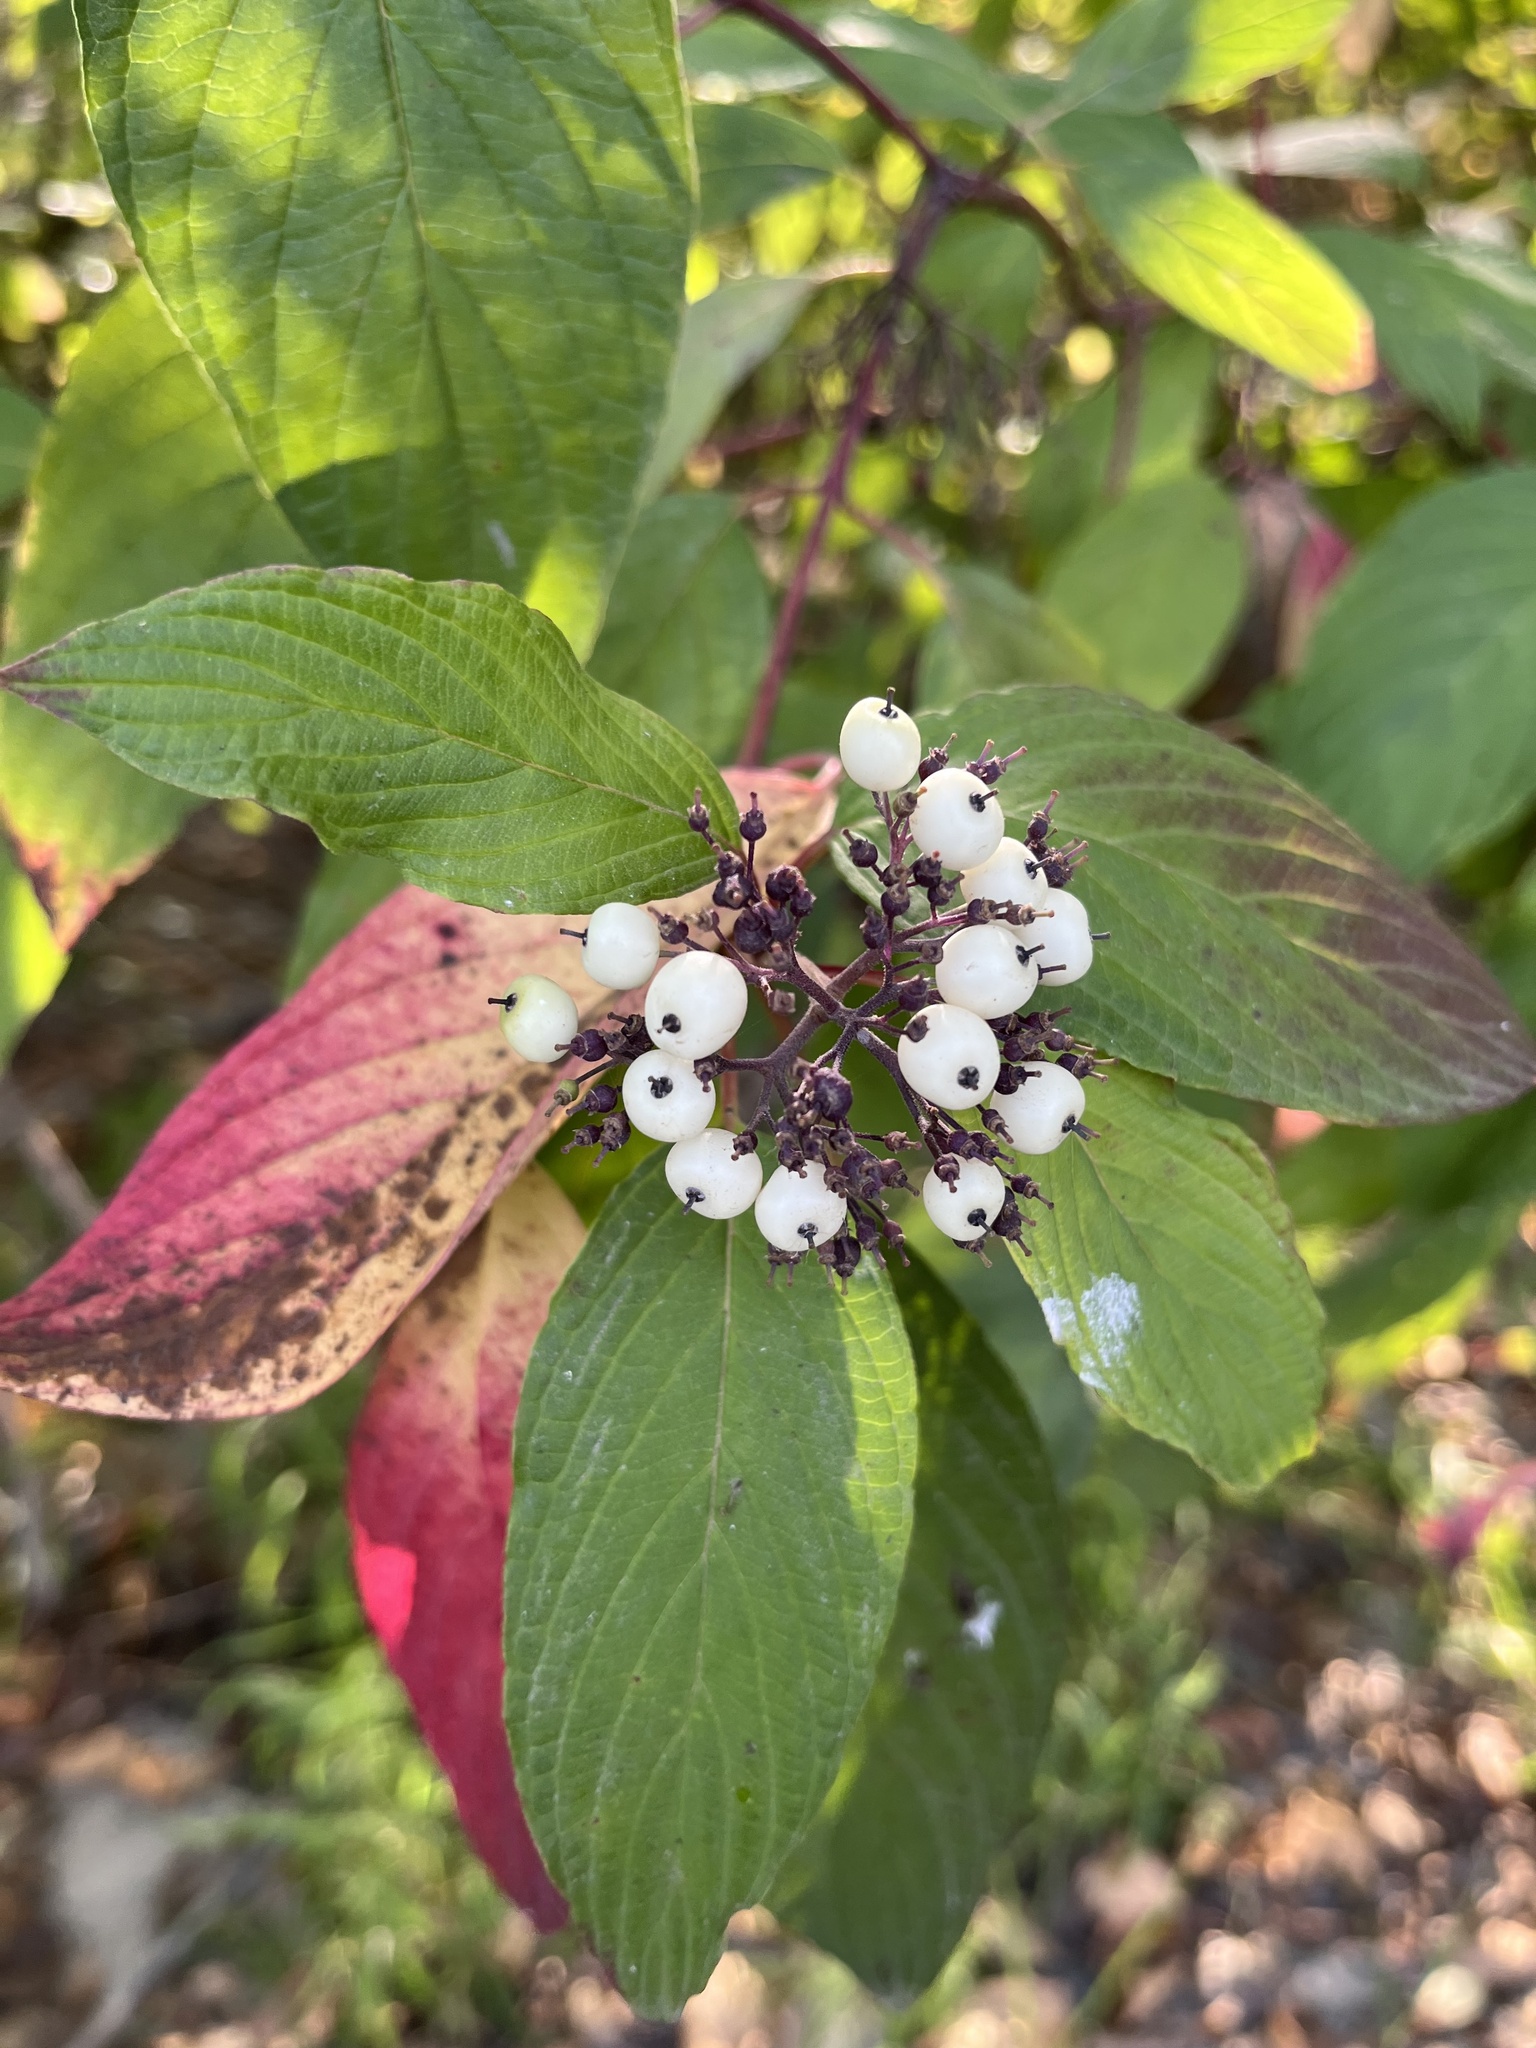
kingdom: Plantae
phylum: Tracheophyta
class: Magnoliopsida
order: Cornales
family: Cornaceae
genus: Cornus
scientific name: Cornus sericea
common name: Red-osier dogwood
